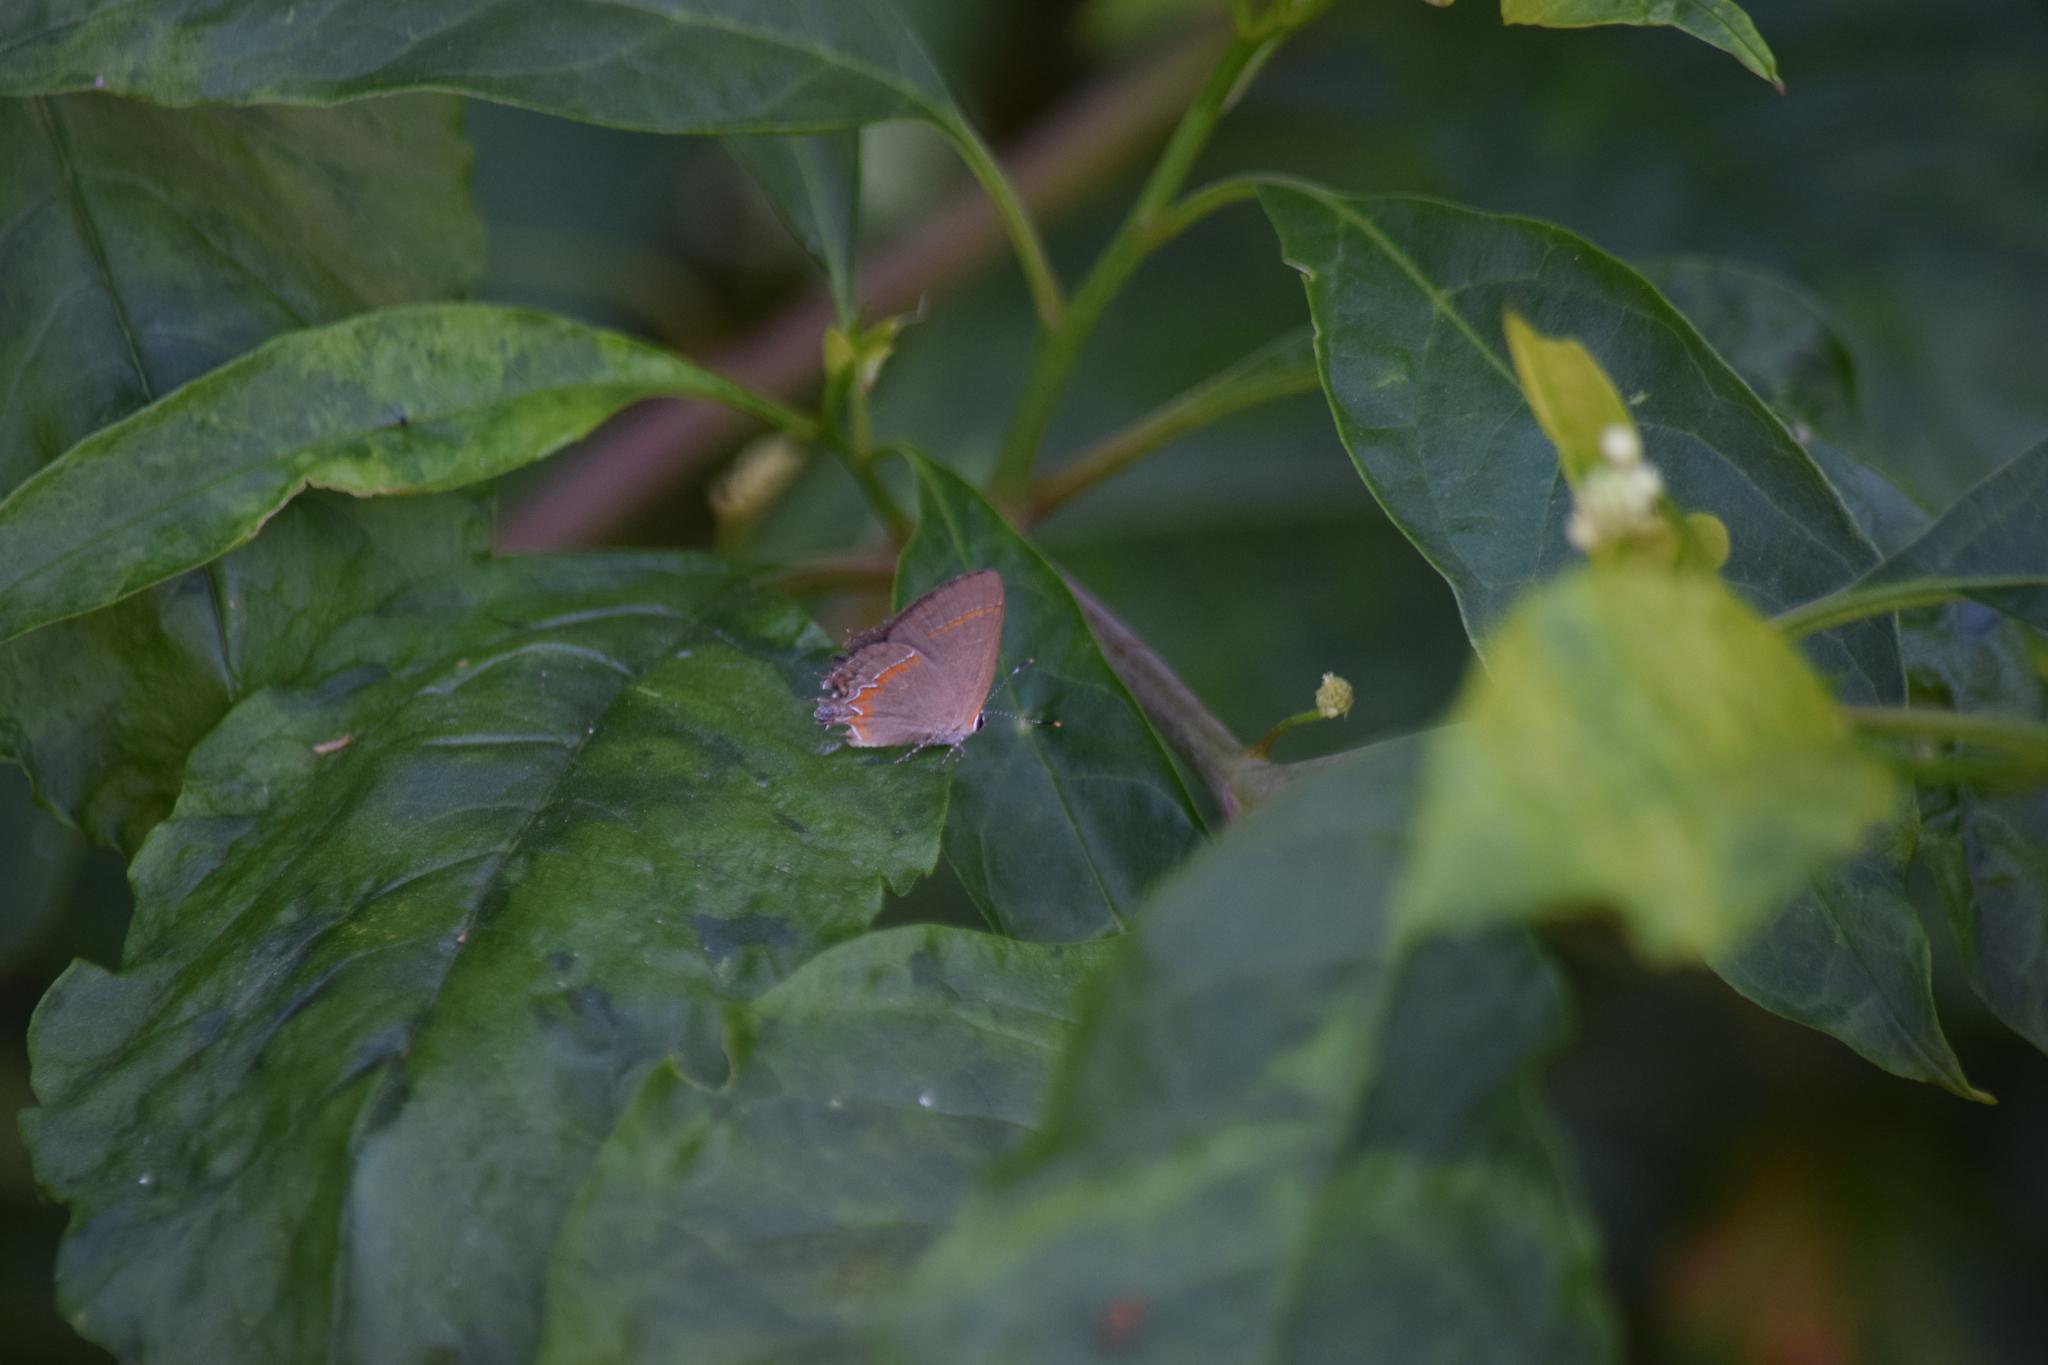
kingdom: Animalia
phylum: Arthropoda
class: Insecta
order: Lepidoptera
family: Lycaenidae
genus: Calycopis
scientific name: Calycopis cecrops
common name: Red-banded hairstreak
